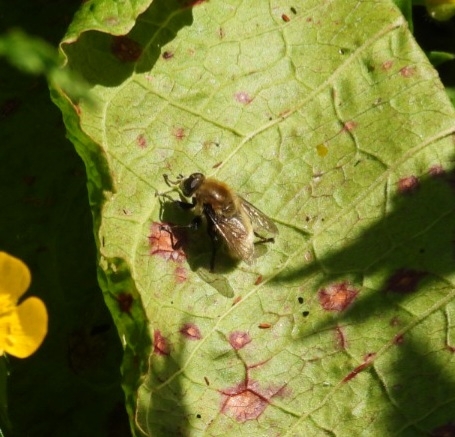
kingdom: Animalia
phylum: Arthropoda
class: Insecta
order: Diptera
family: Syrphidae
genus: Merodon
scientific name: Merodon equestris
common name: Greater bulb-fly
